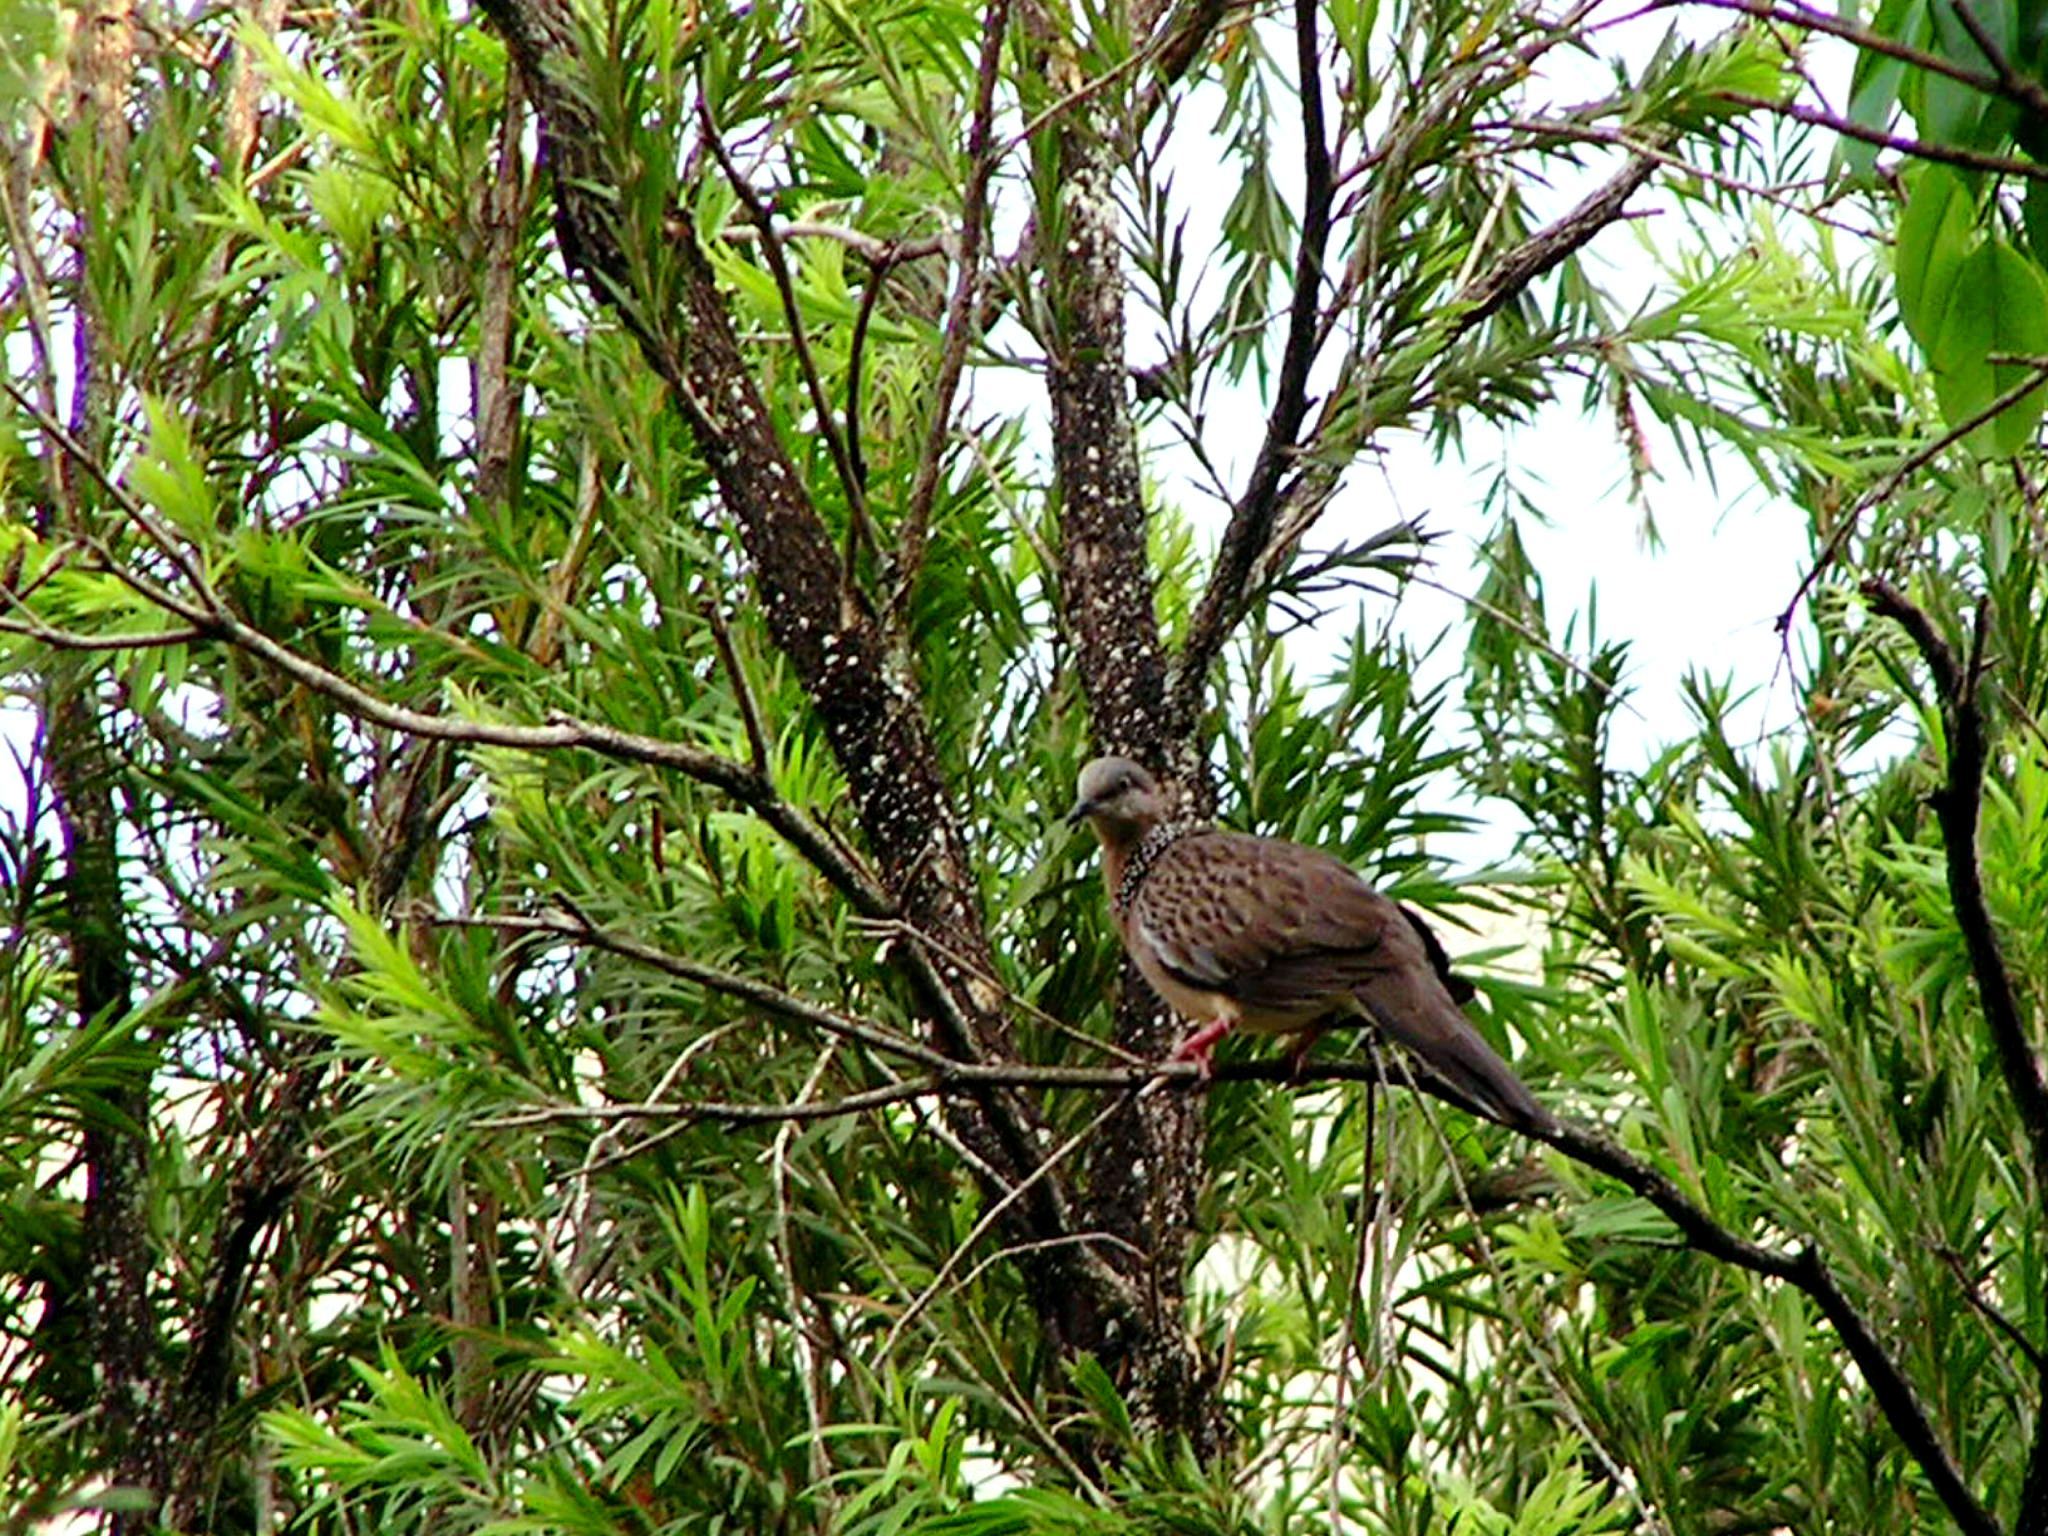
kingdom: Animalia
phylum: Chordata
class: Aves
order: Columbiformes
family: Columbidae
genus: Spilopelia
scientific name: Spilopelia chinensis
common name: Spotted dove
